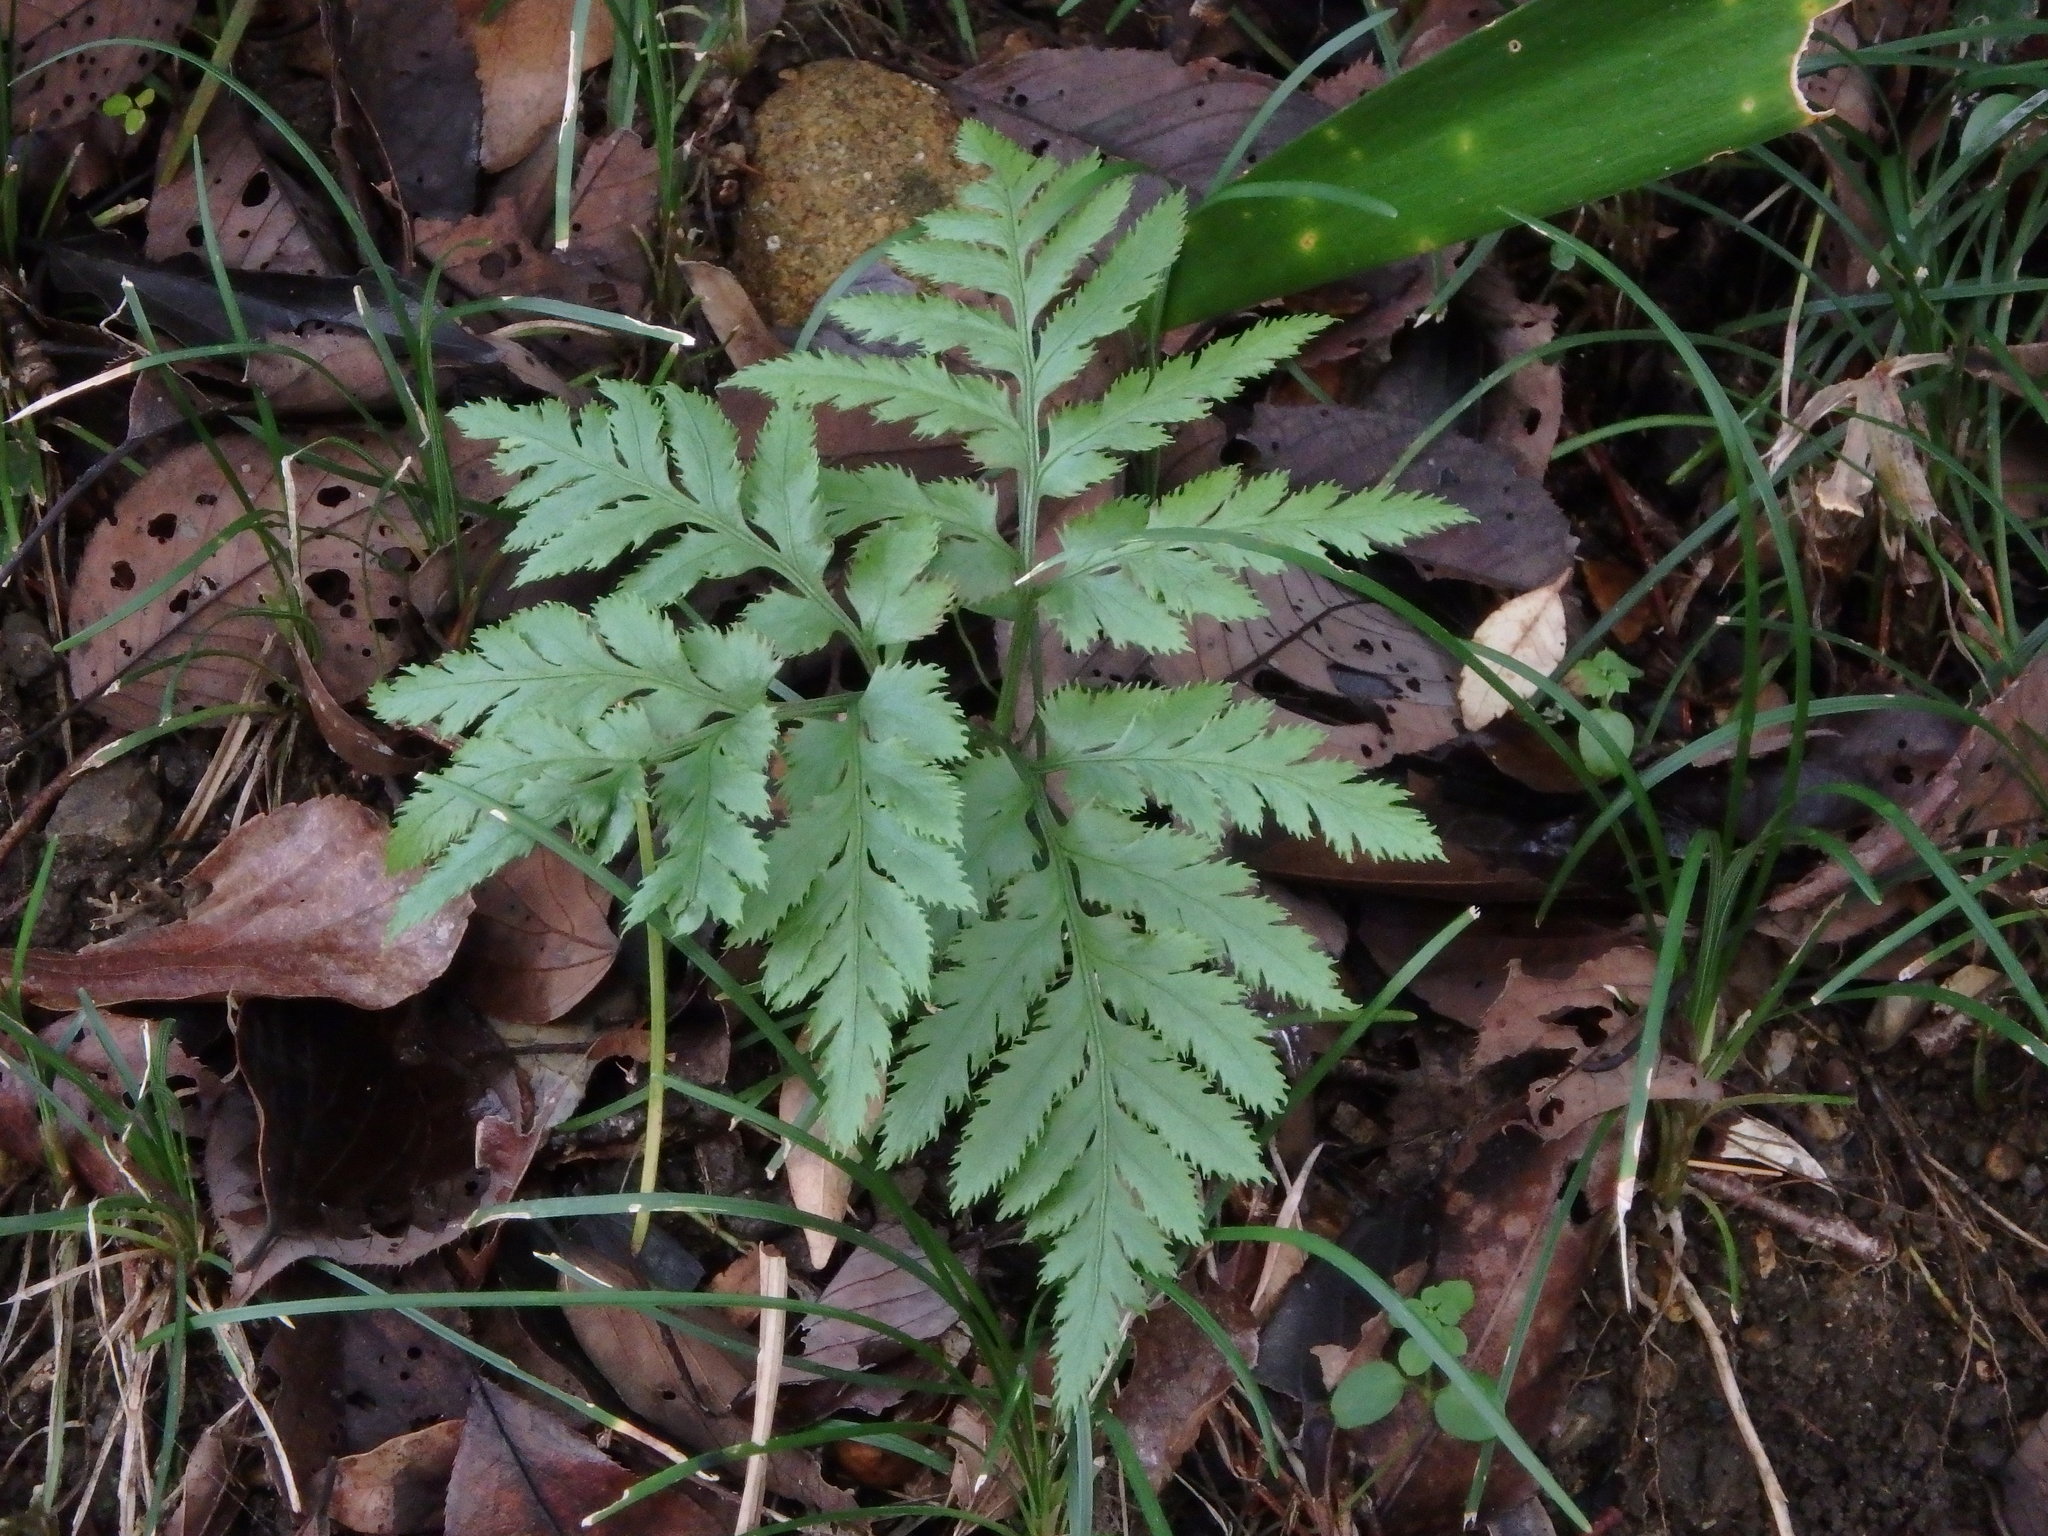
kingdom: Plantae
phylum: Tracheophyta
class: Polypodiopsida
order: Ophioglossales
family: Ophioglossaceae
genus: Sceptridium
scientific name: Sceptridium japonicum
